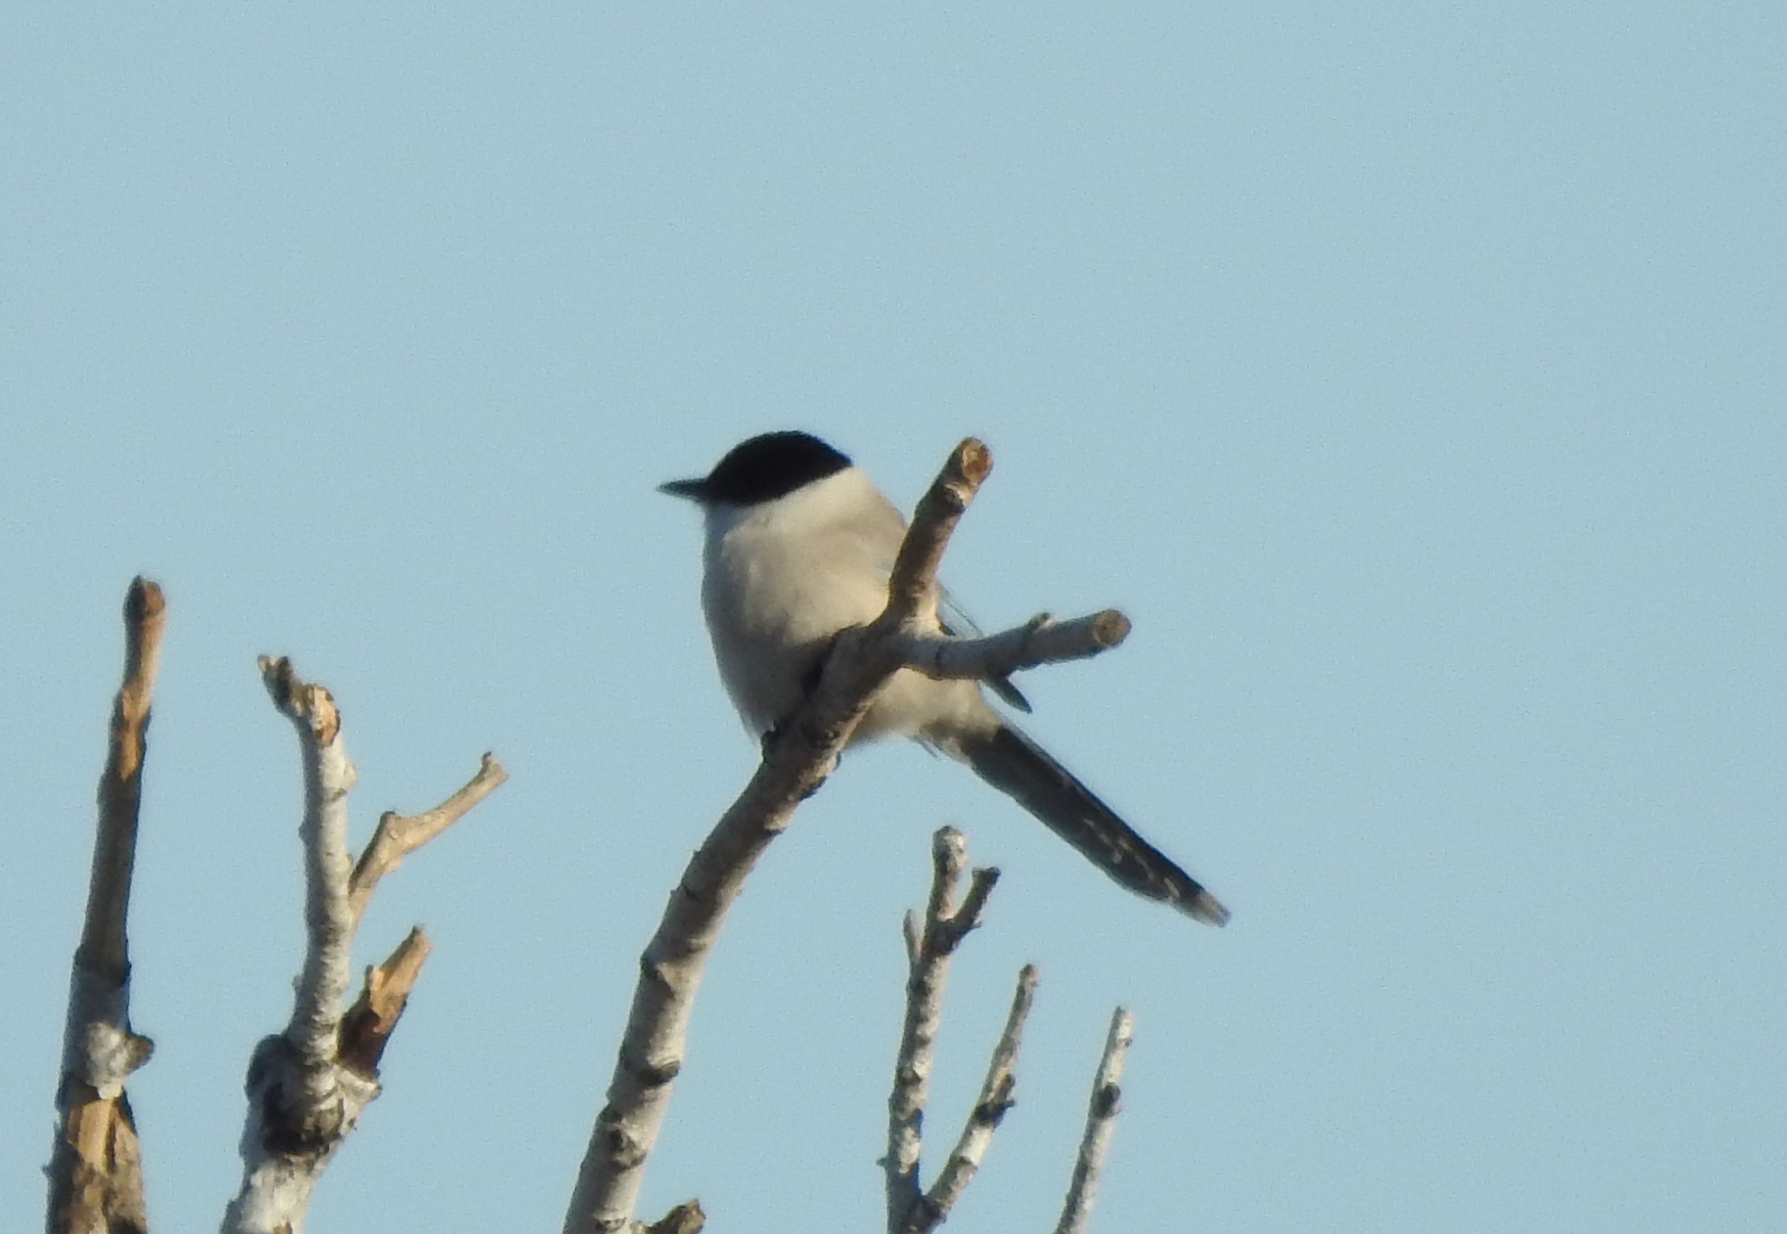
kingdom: Animalia
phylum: Chordata
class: Aves
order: Passeriformes
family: Corvidae
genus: Cyanopica
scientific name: Cyanopica cyanus
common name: Azure-winged magpie
